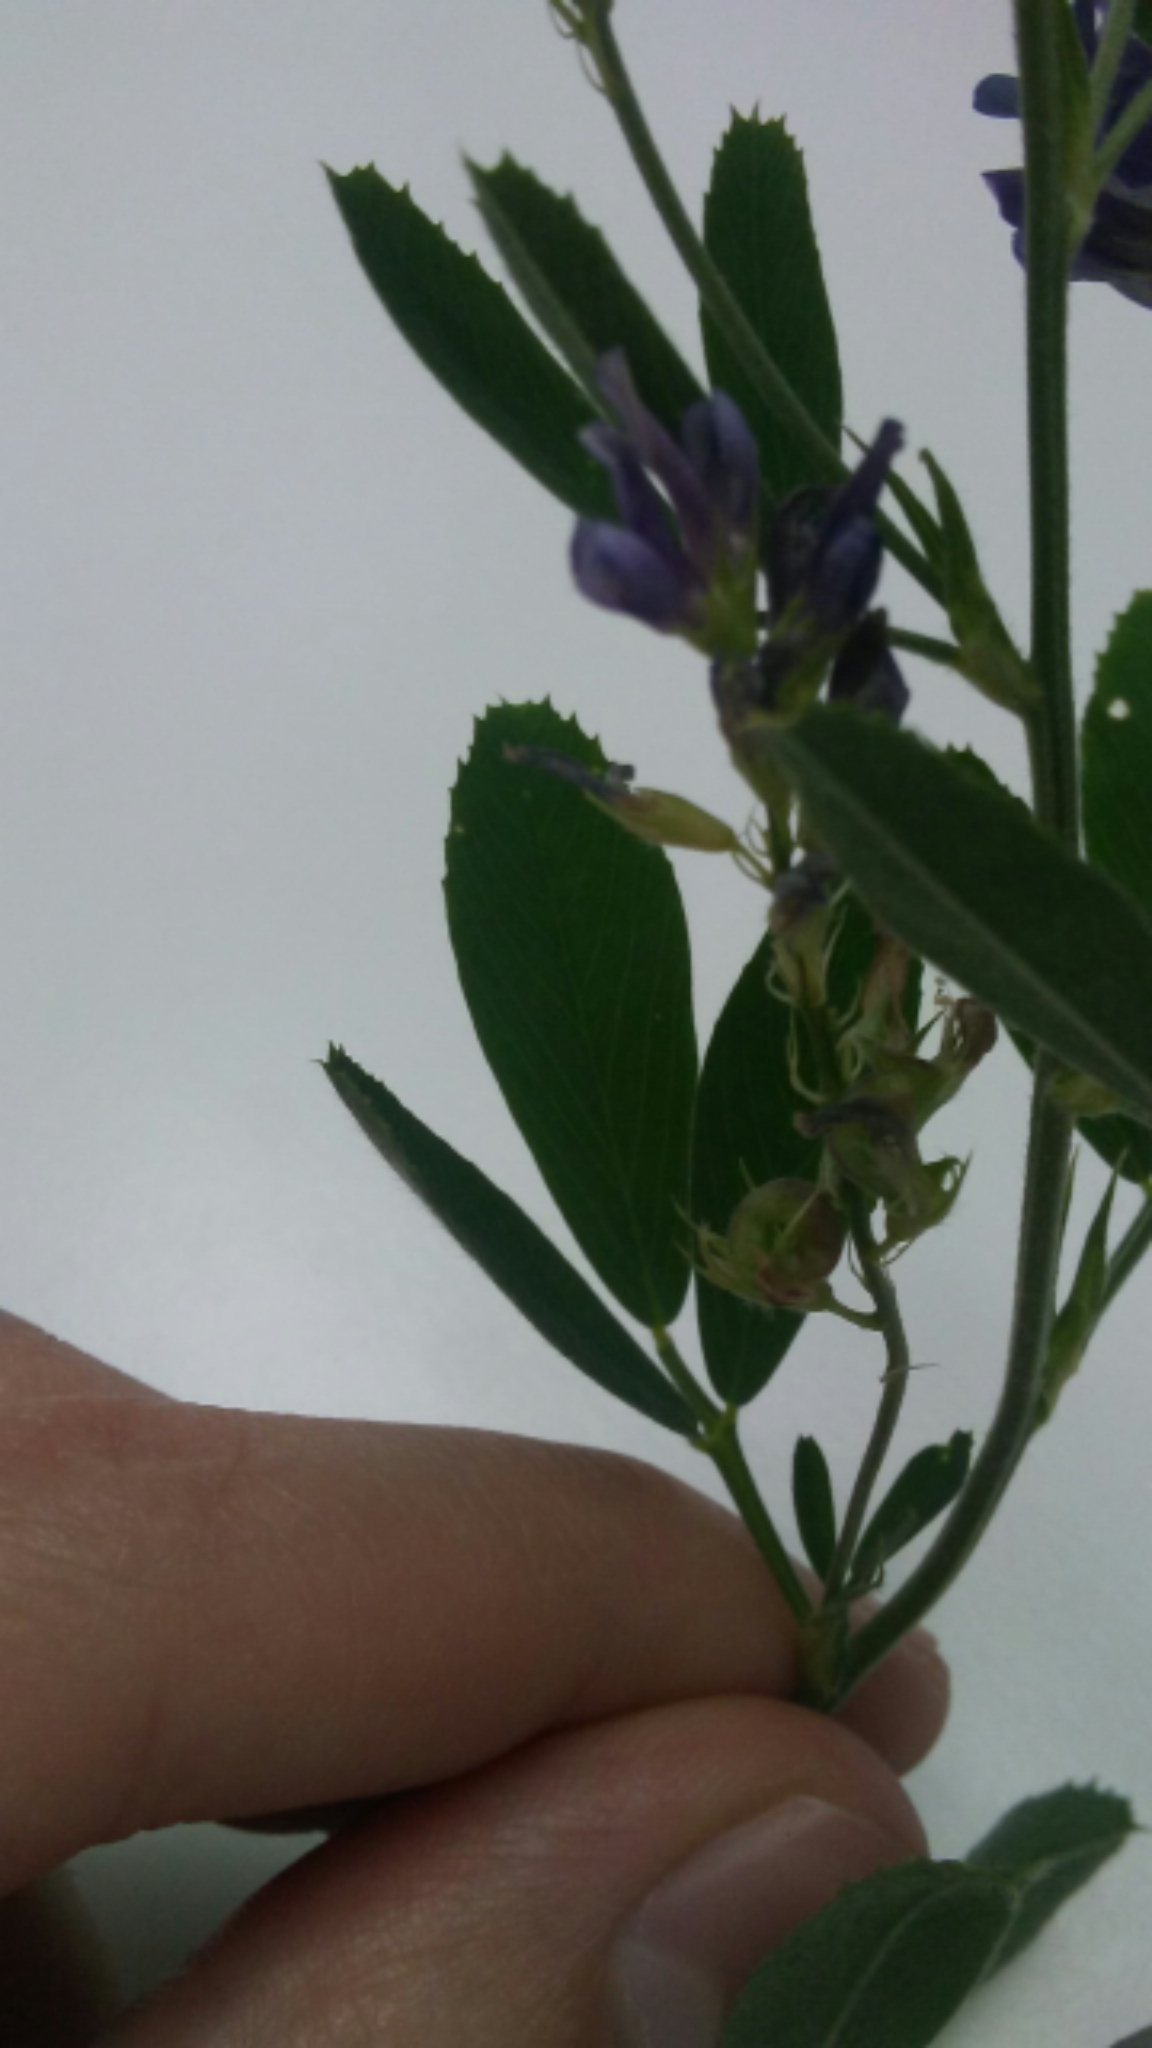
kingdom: Plantae
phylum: Tracheophyta
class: Magnoliopsida
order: Fabales
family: Fabaceae
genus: Medicago
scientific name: Medicago sativa
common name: Alfalfa
